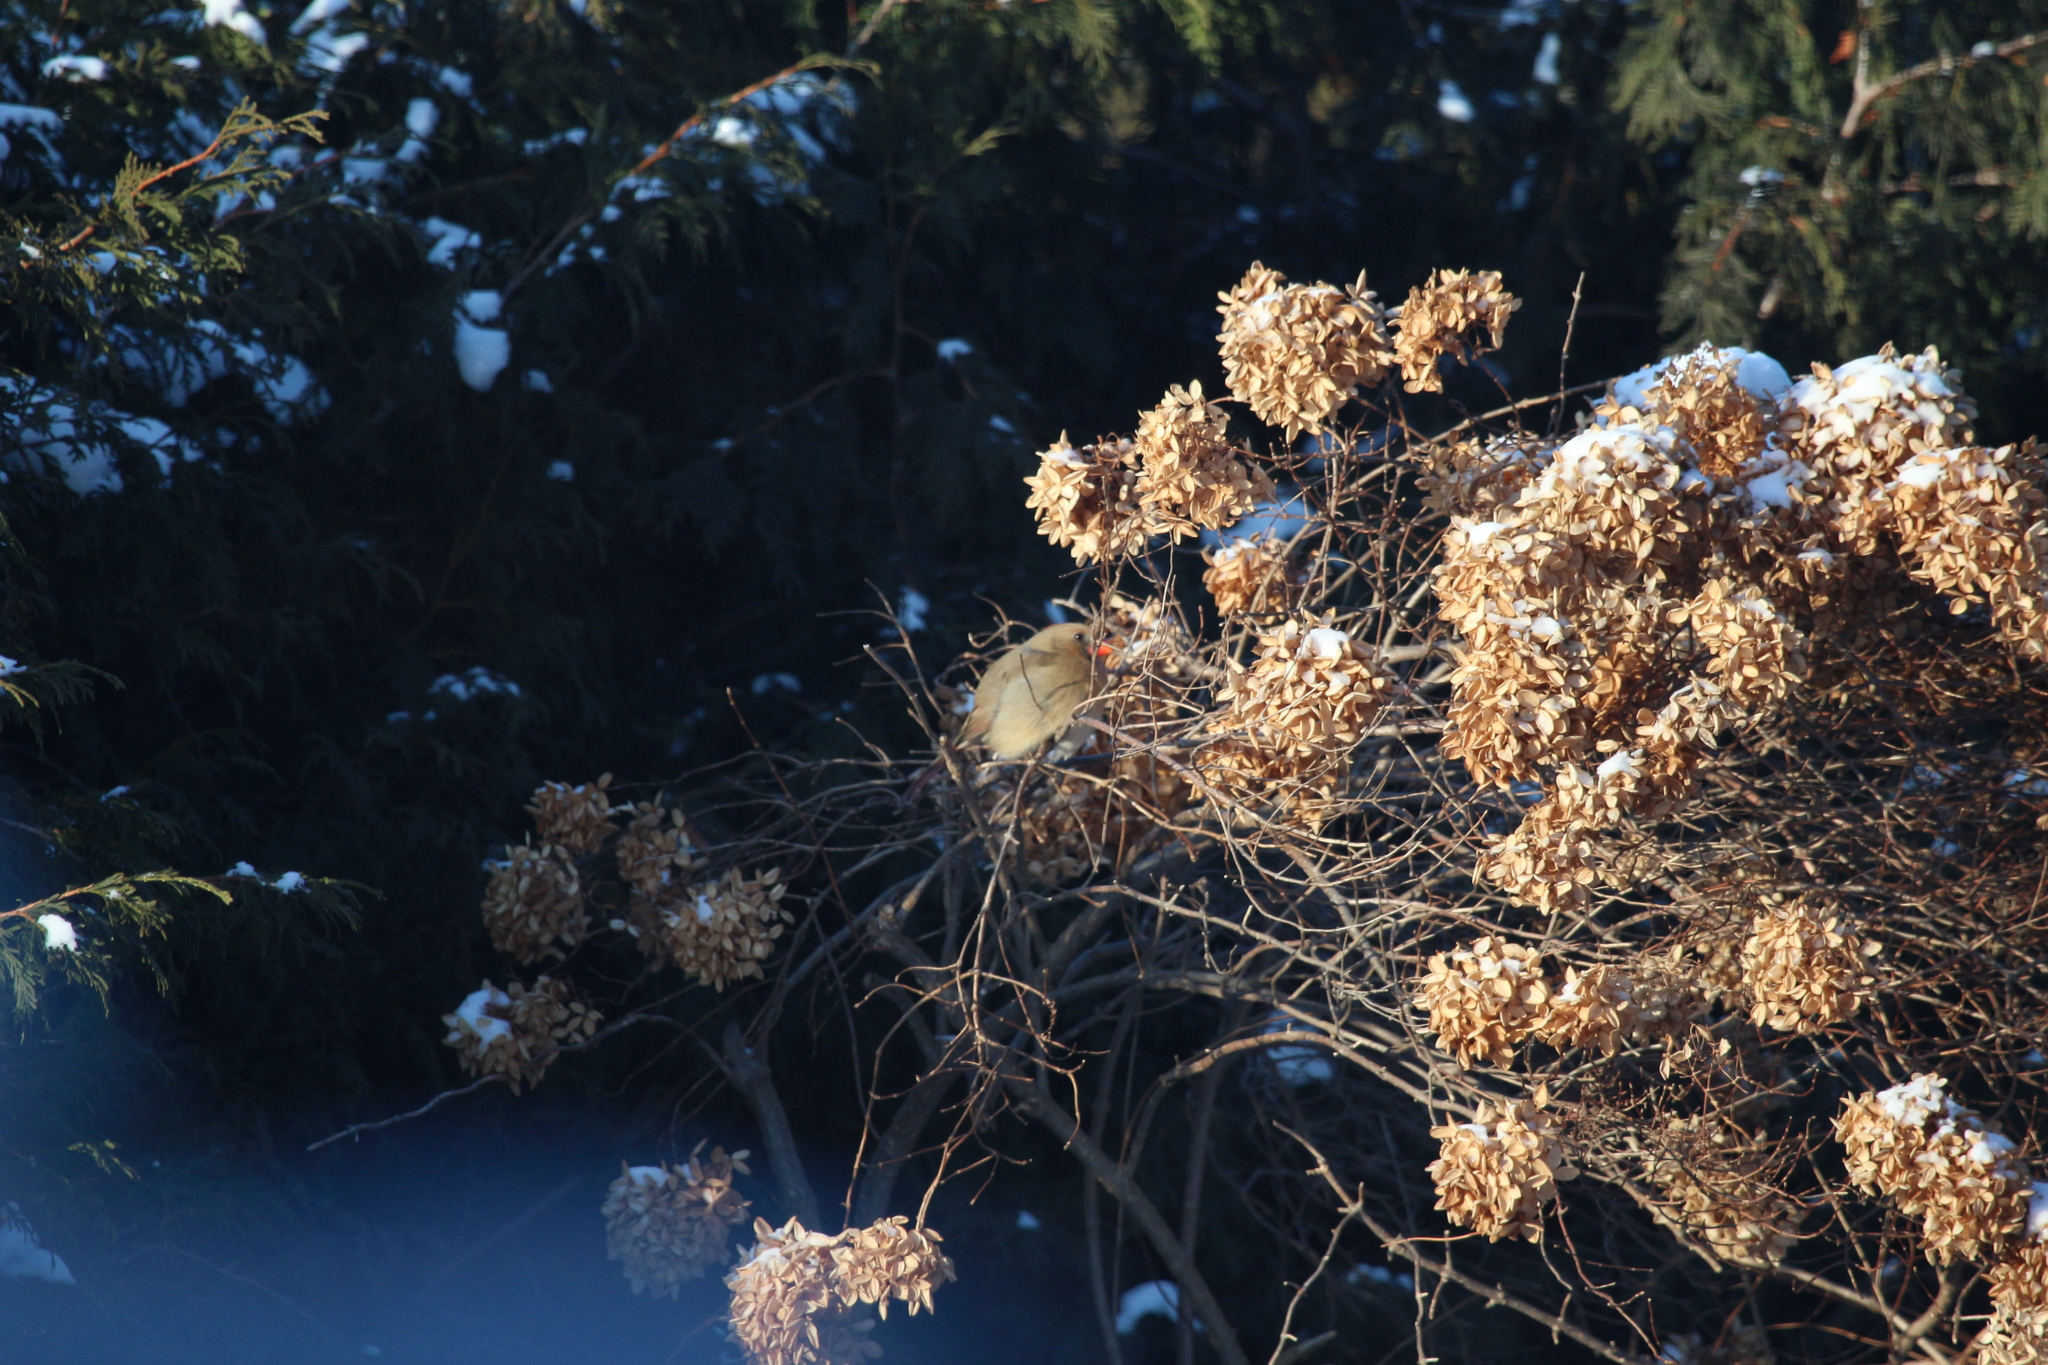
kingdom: Animalia
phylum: Chordata
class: Aves
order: Passeriformes
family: Cardinalidae
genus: Cardinalis
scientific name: Cardinalis cardinalis
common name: Northern cardinal
